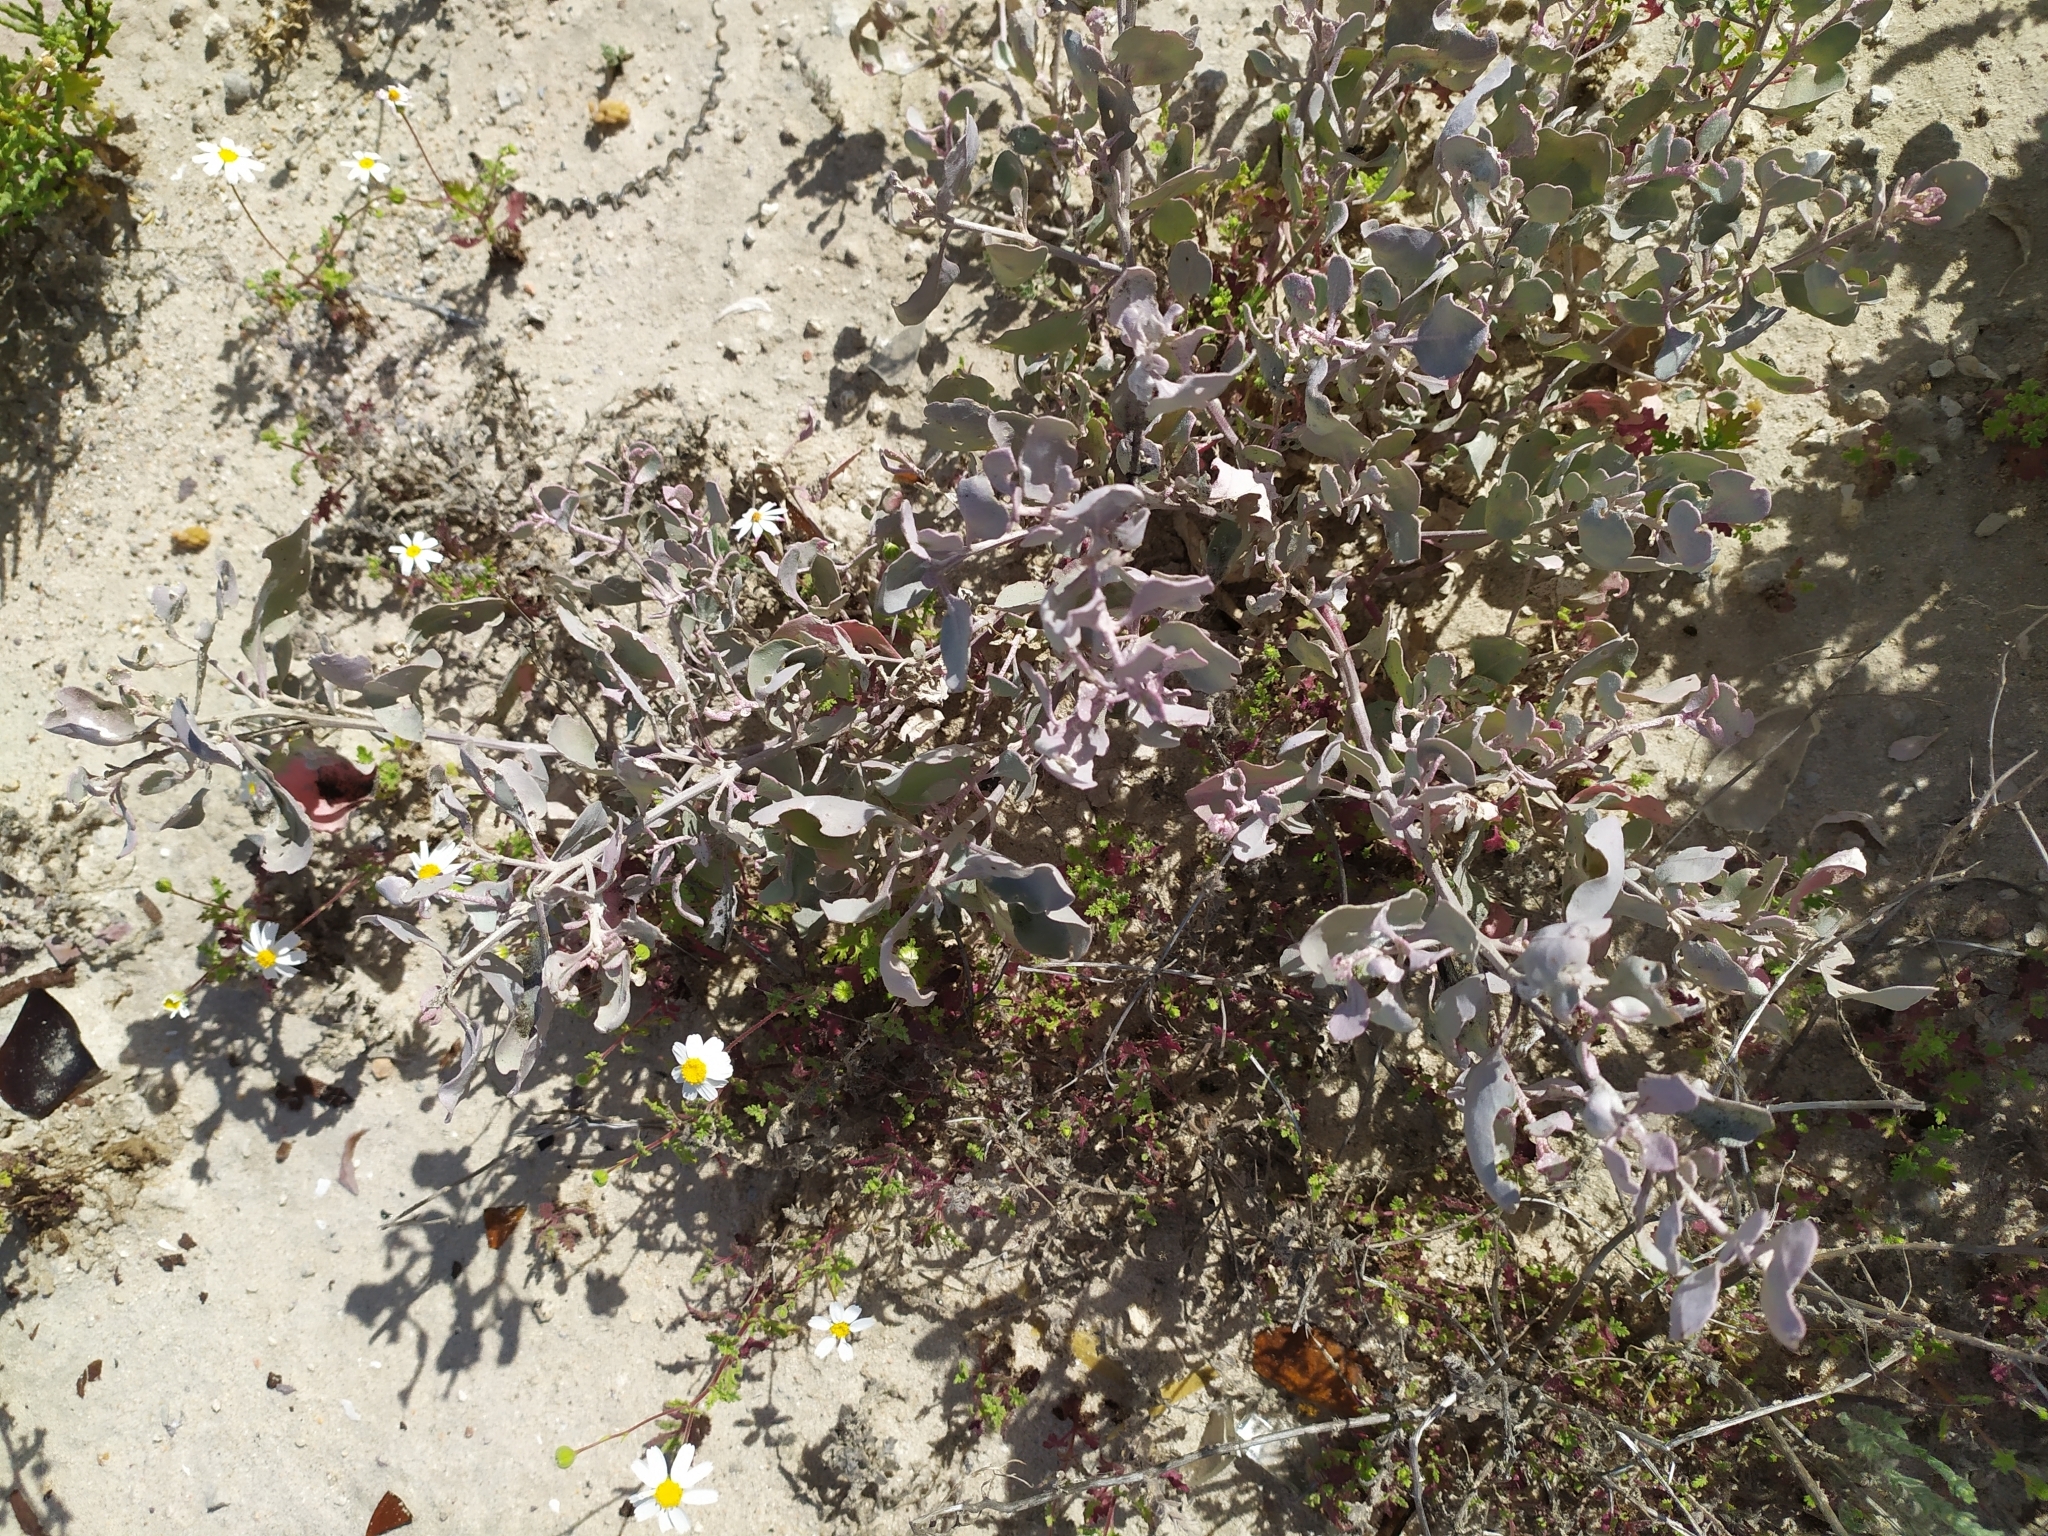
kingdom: Plantae
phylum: Tracheophyta
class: Magnoliopsida
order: Caryophyllales
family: Amaranthaceae
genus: Atriplex
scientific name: Atriplex barclayana
